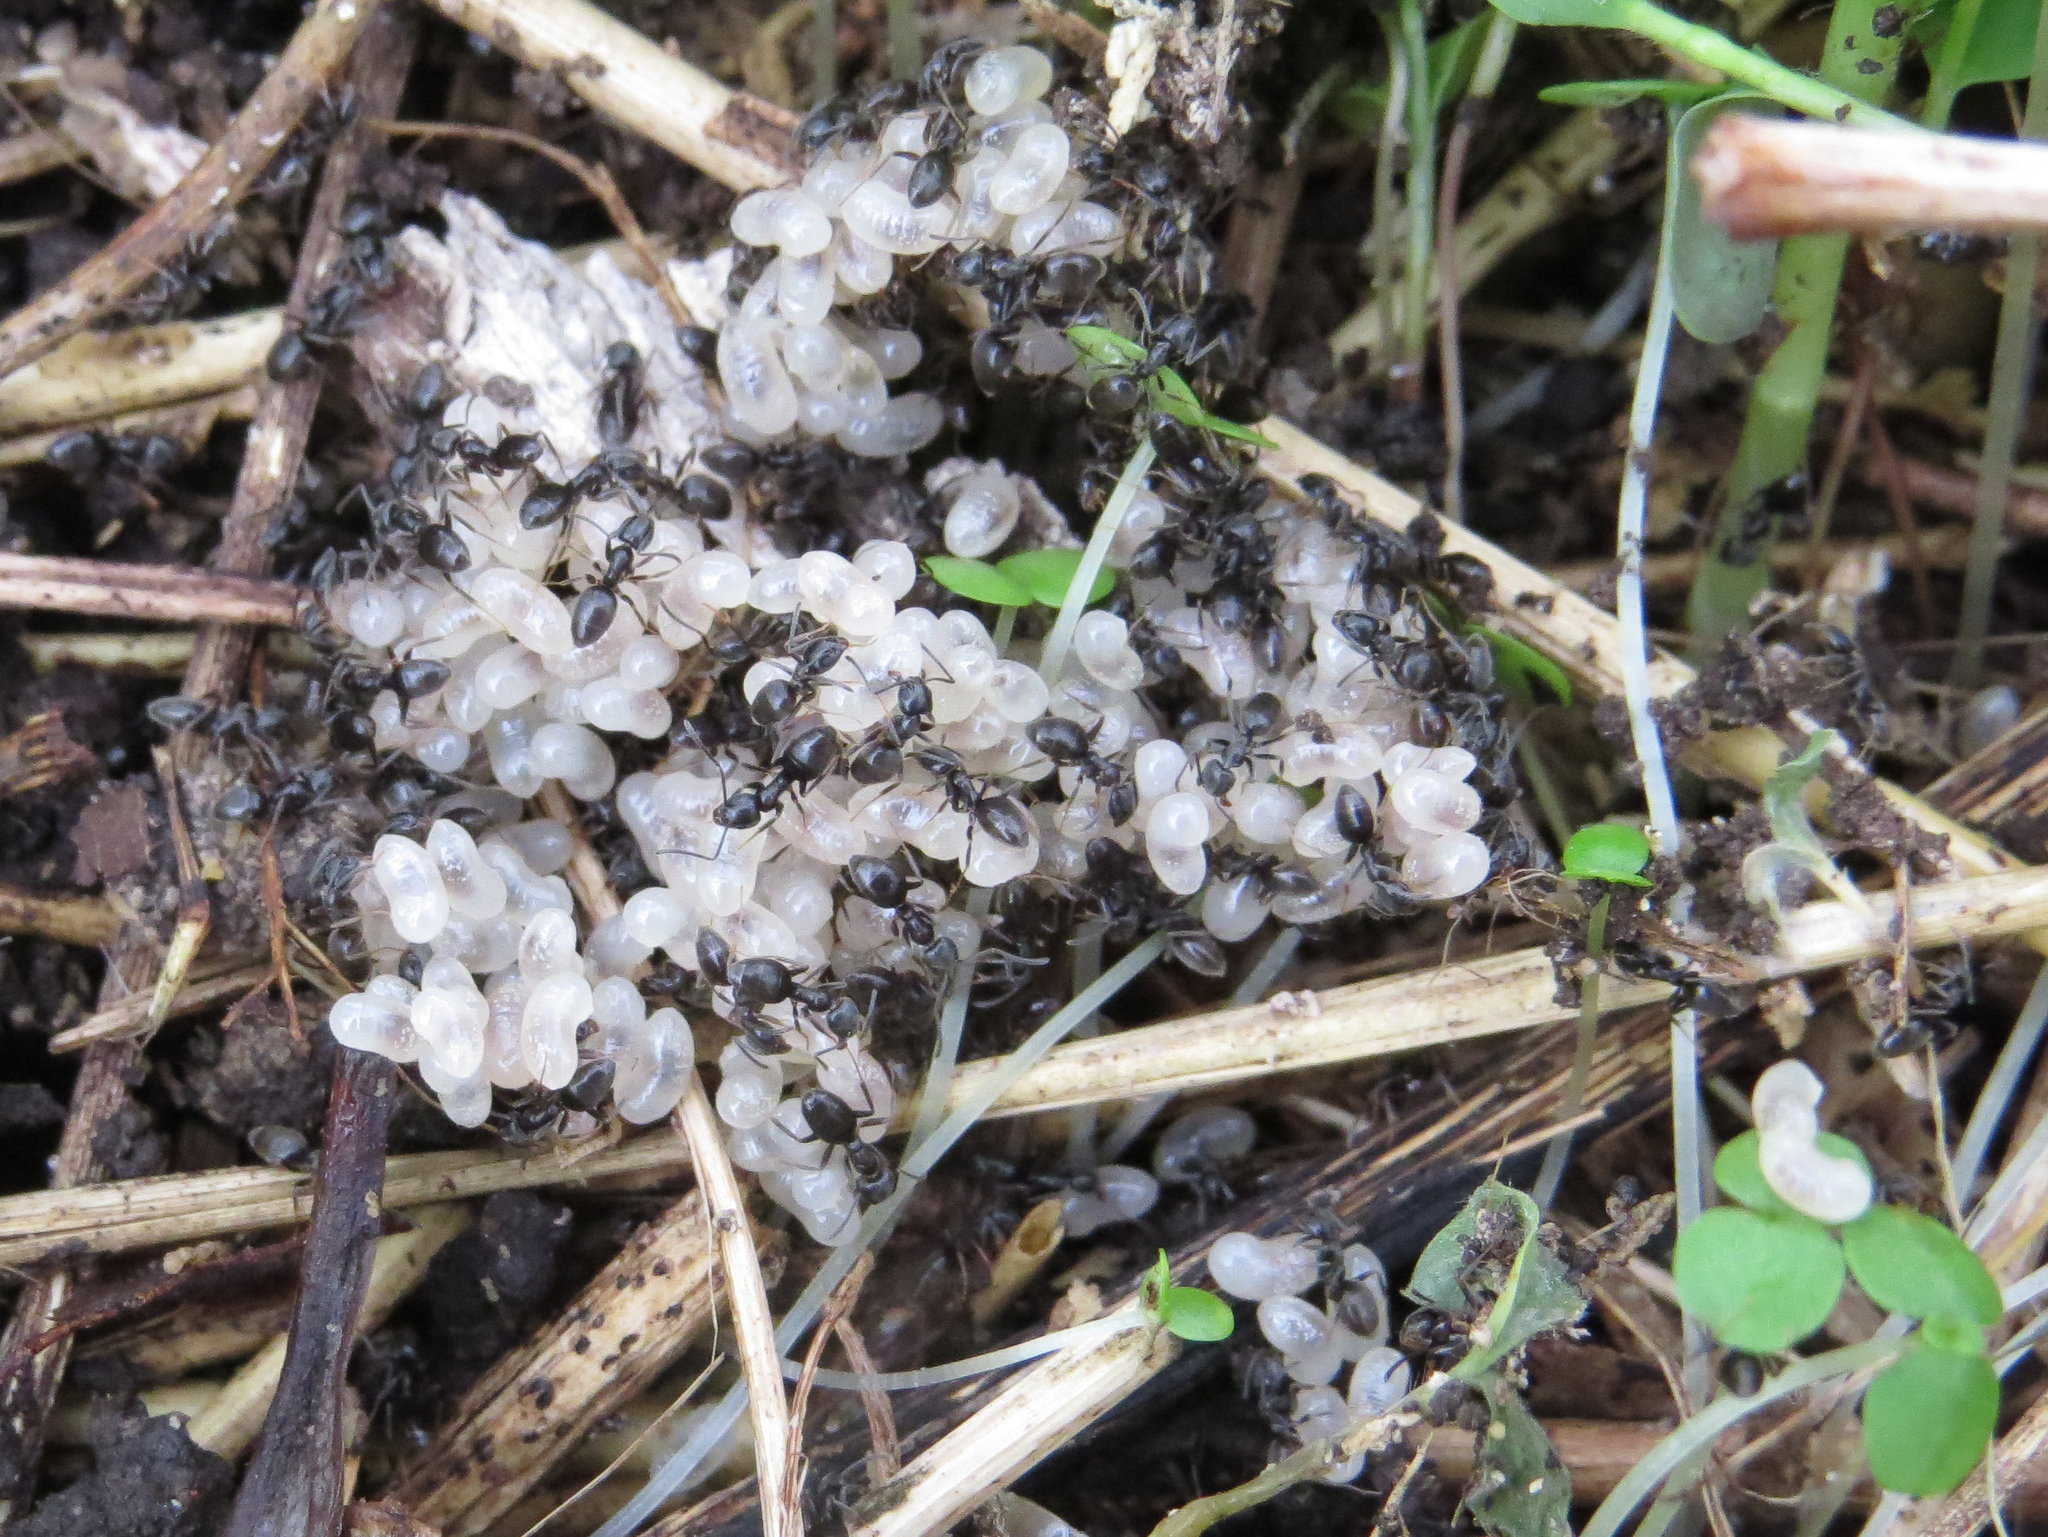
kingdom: Animalia
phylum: Arthropoda
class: Insecta
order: Hymenoptera
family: Formicidae
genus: Tapinoma
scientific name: Tapinoma sessile
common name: Odorous house ant
